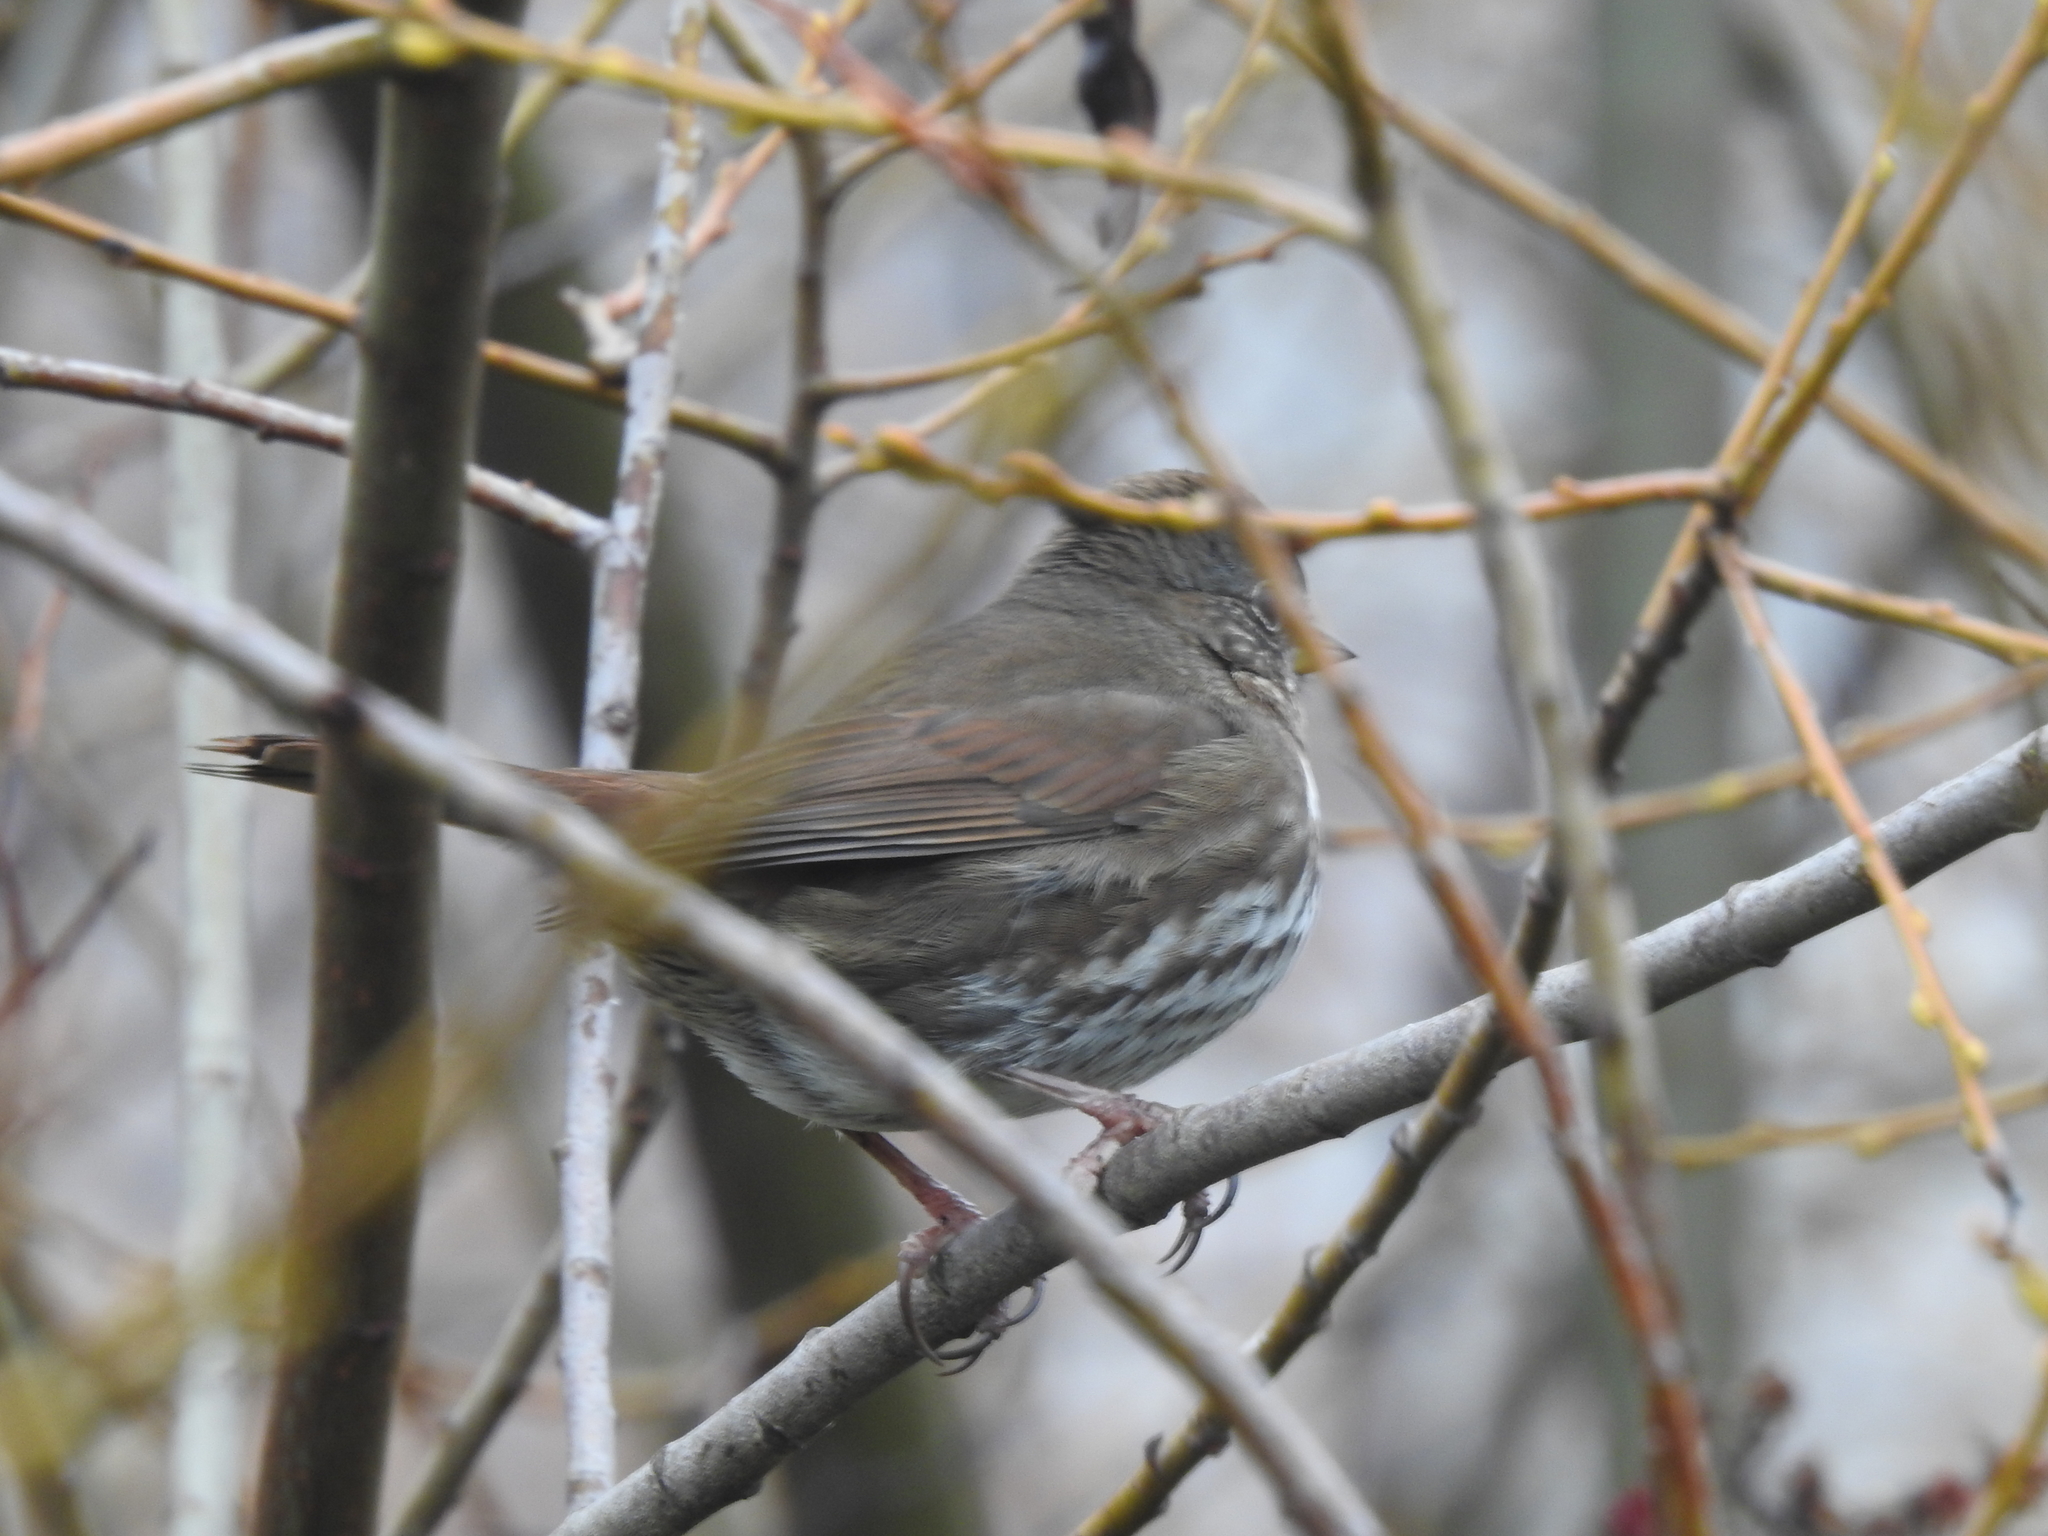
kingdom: Animalia
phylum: Chordata
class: Aves
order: Passeriformes
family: Passerellidae
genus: Passerella
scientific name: Passerella iliaca
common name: Fox sparrow
